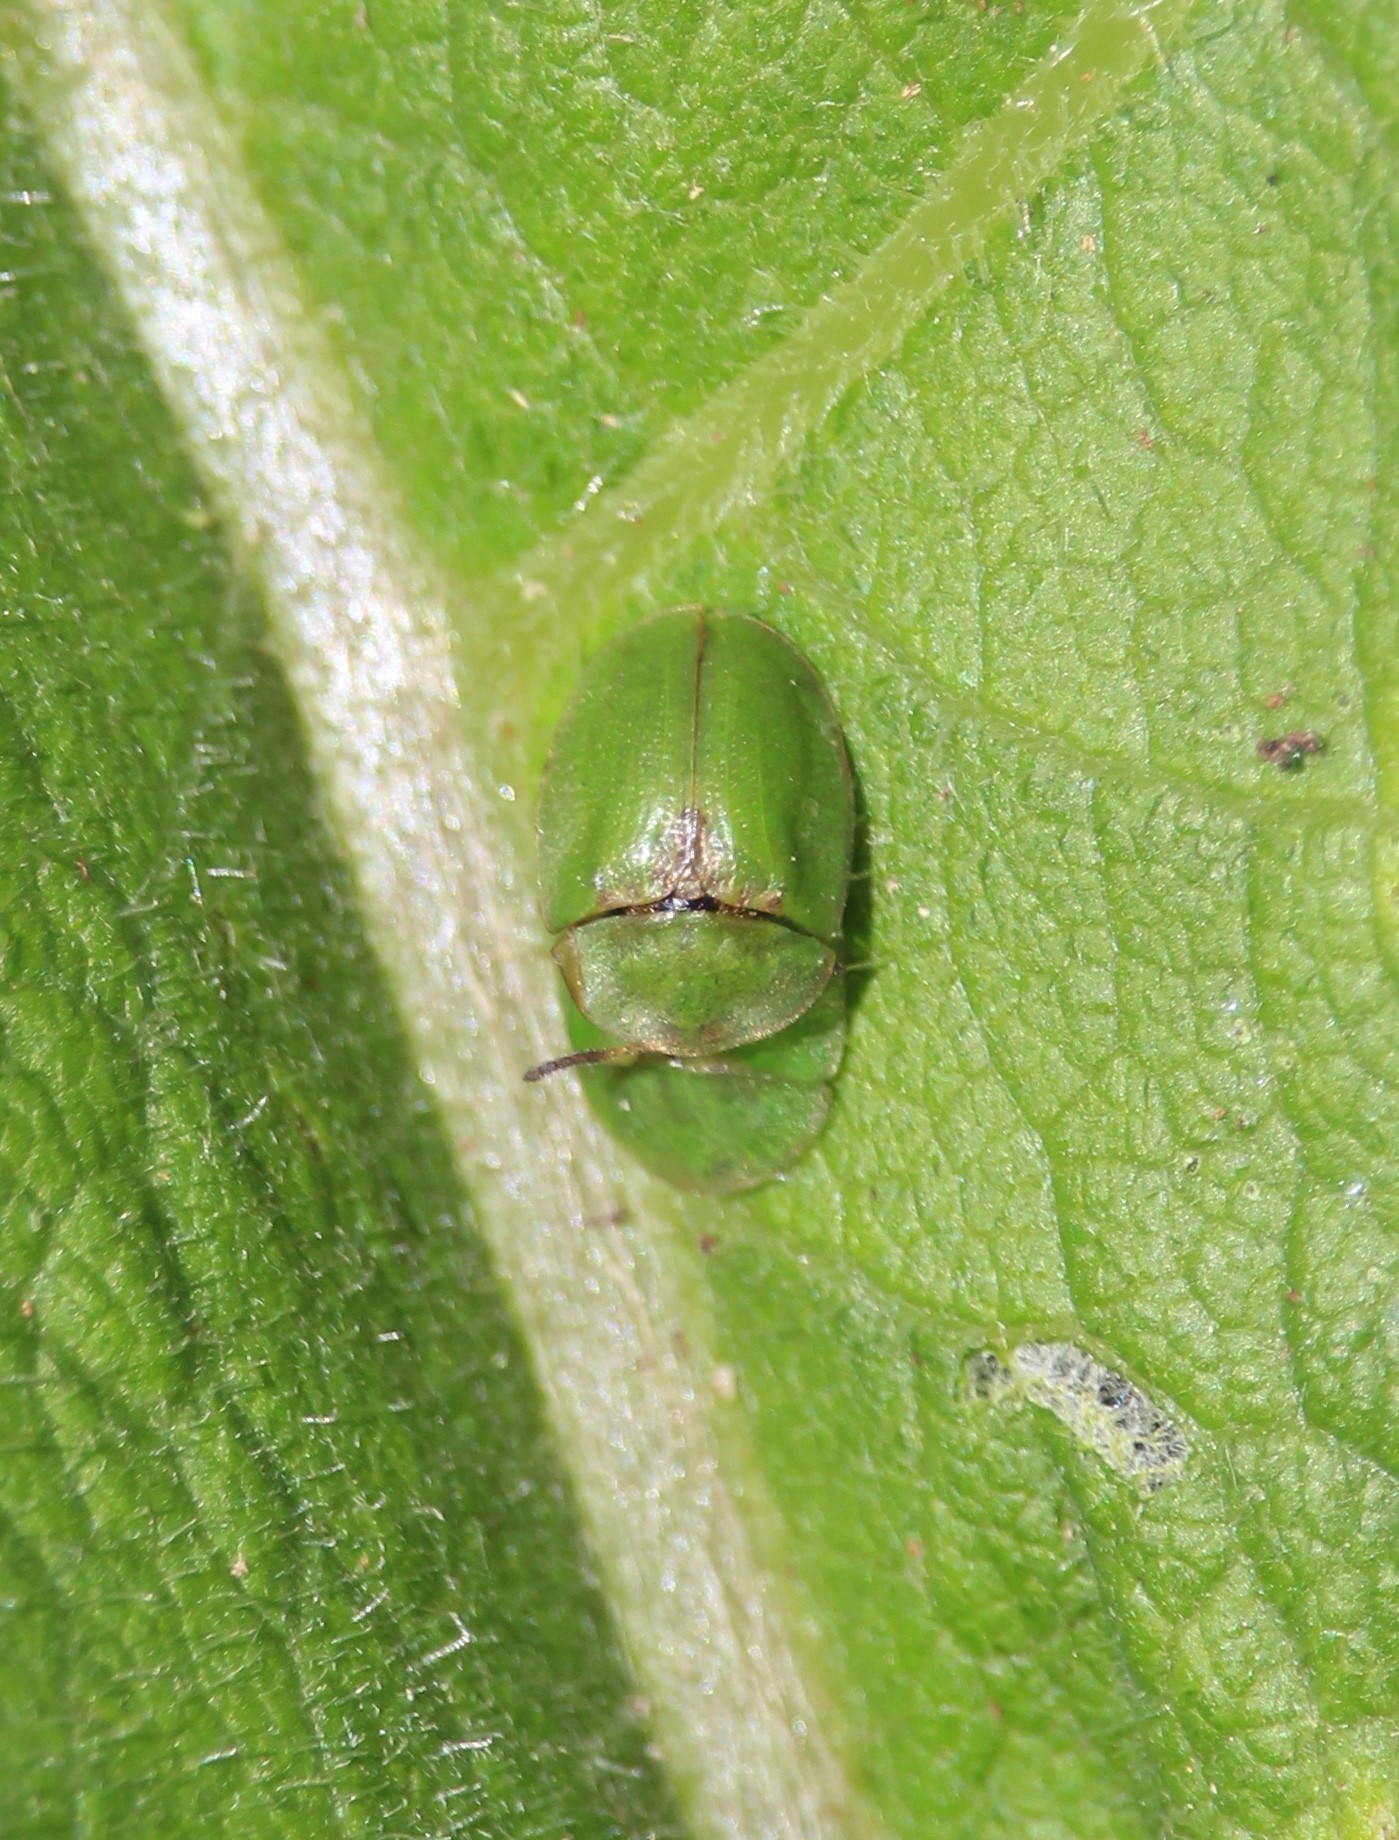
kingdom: Animalia
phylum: Arthropoda
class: Insecta
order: Coleoptera
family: Chrysomelidae
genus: Cassida
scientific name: Cassida rubiginosa
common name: Thistle tortoise beetle
